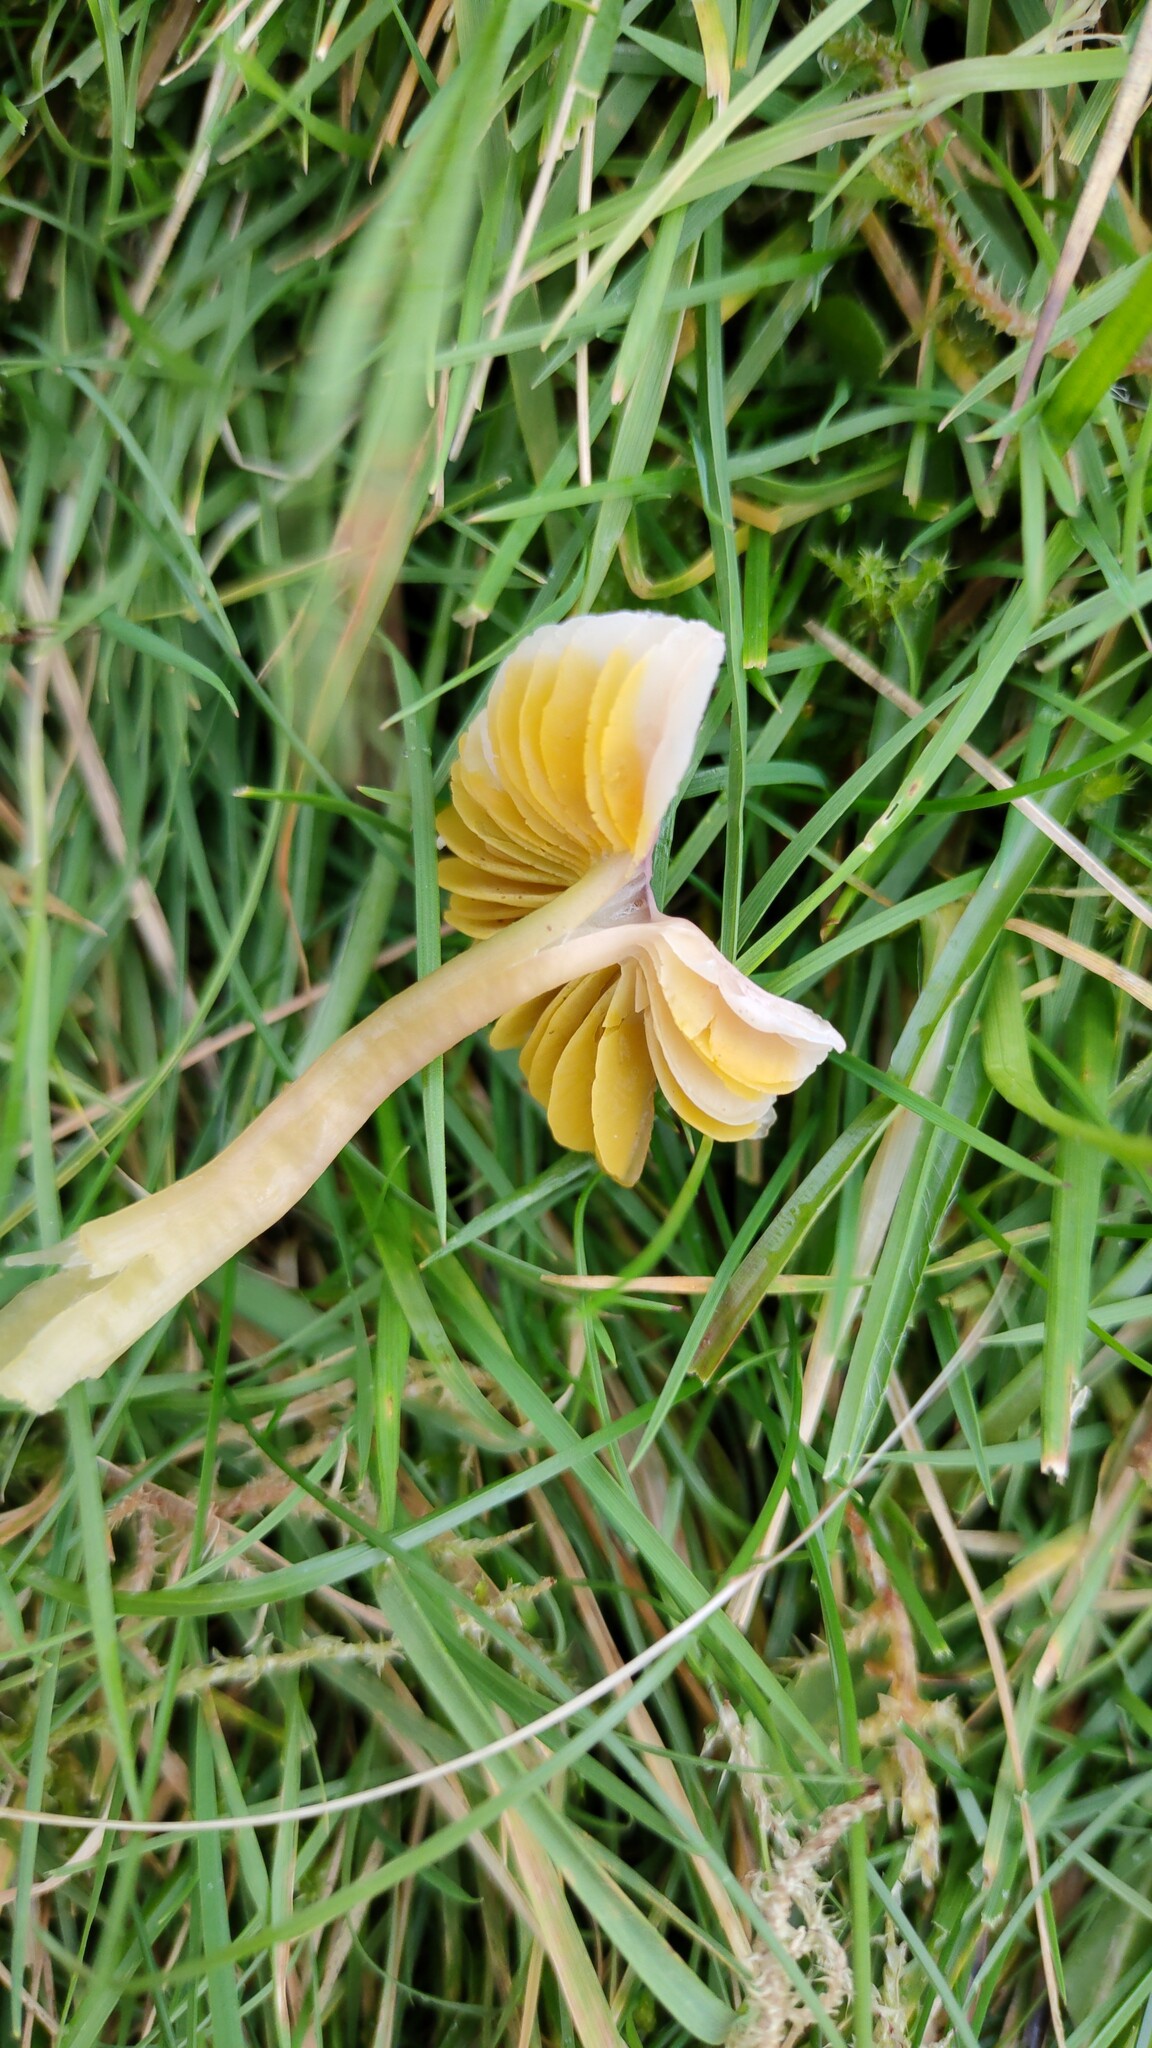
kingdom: Fungi
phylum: Basidiomycota
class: Agaricomycetes
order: Agaricales
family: Hygrophoraceae
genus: Gliophorus
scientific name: Gliophorus psittacinus
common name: Parrot wax-cap
